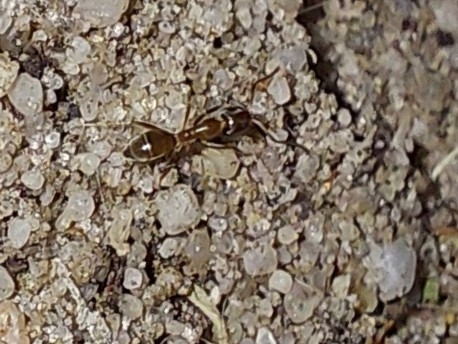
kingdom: Animalia
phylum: Arthropoda
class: Insecta
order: Hymenoptera
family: Formicidae
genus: Linepithema
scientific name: Linepithema humile
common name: Argentine ant
